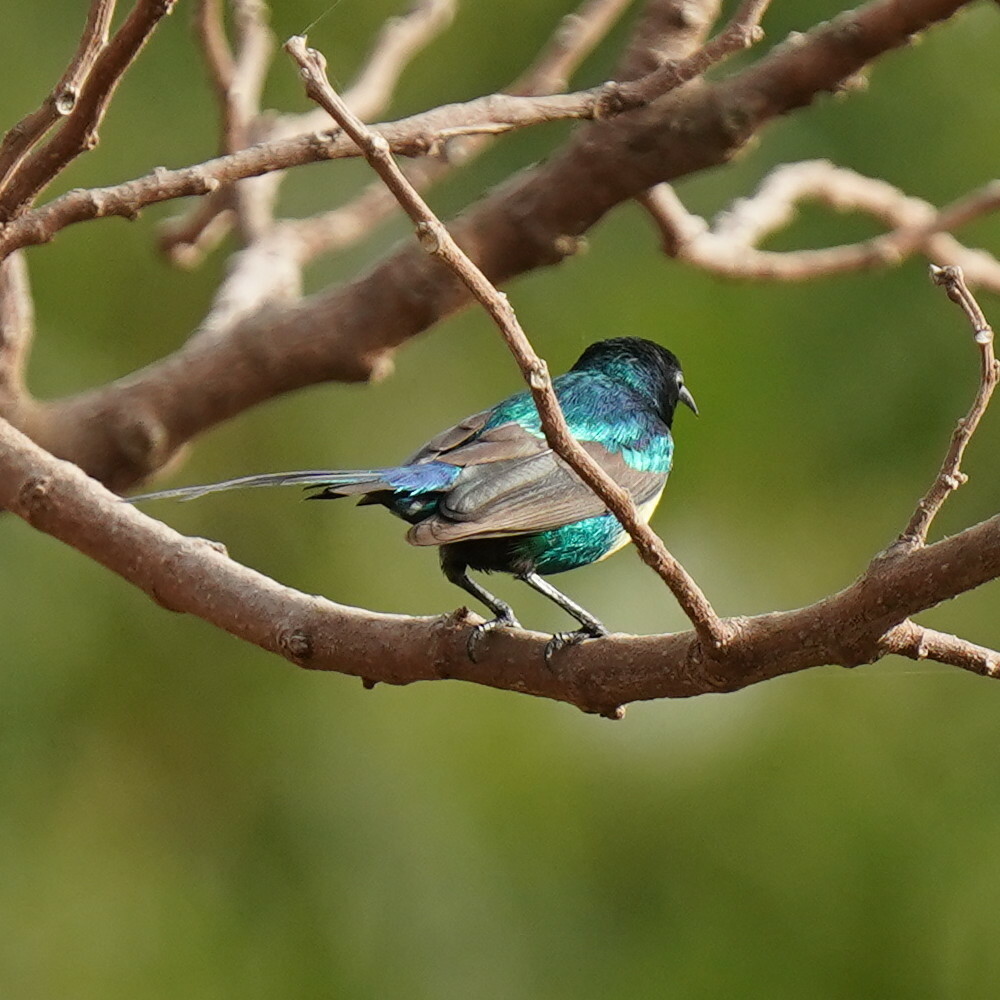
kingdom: Animalia
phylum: Chordata
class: Aves
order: Passeriformes
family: Nectariniidae
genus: Cinnyris
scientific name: Cinnyris pulchellus
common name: Beautiful sunbird
